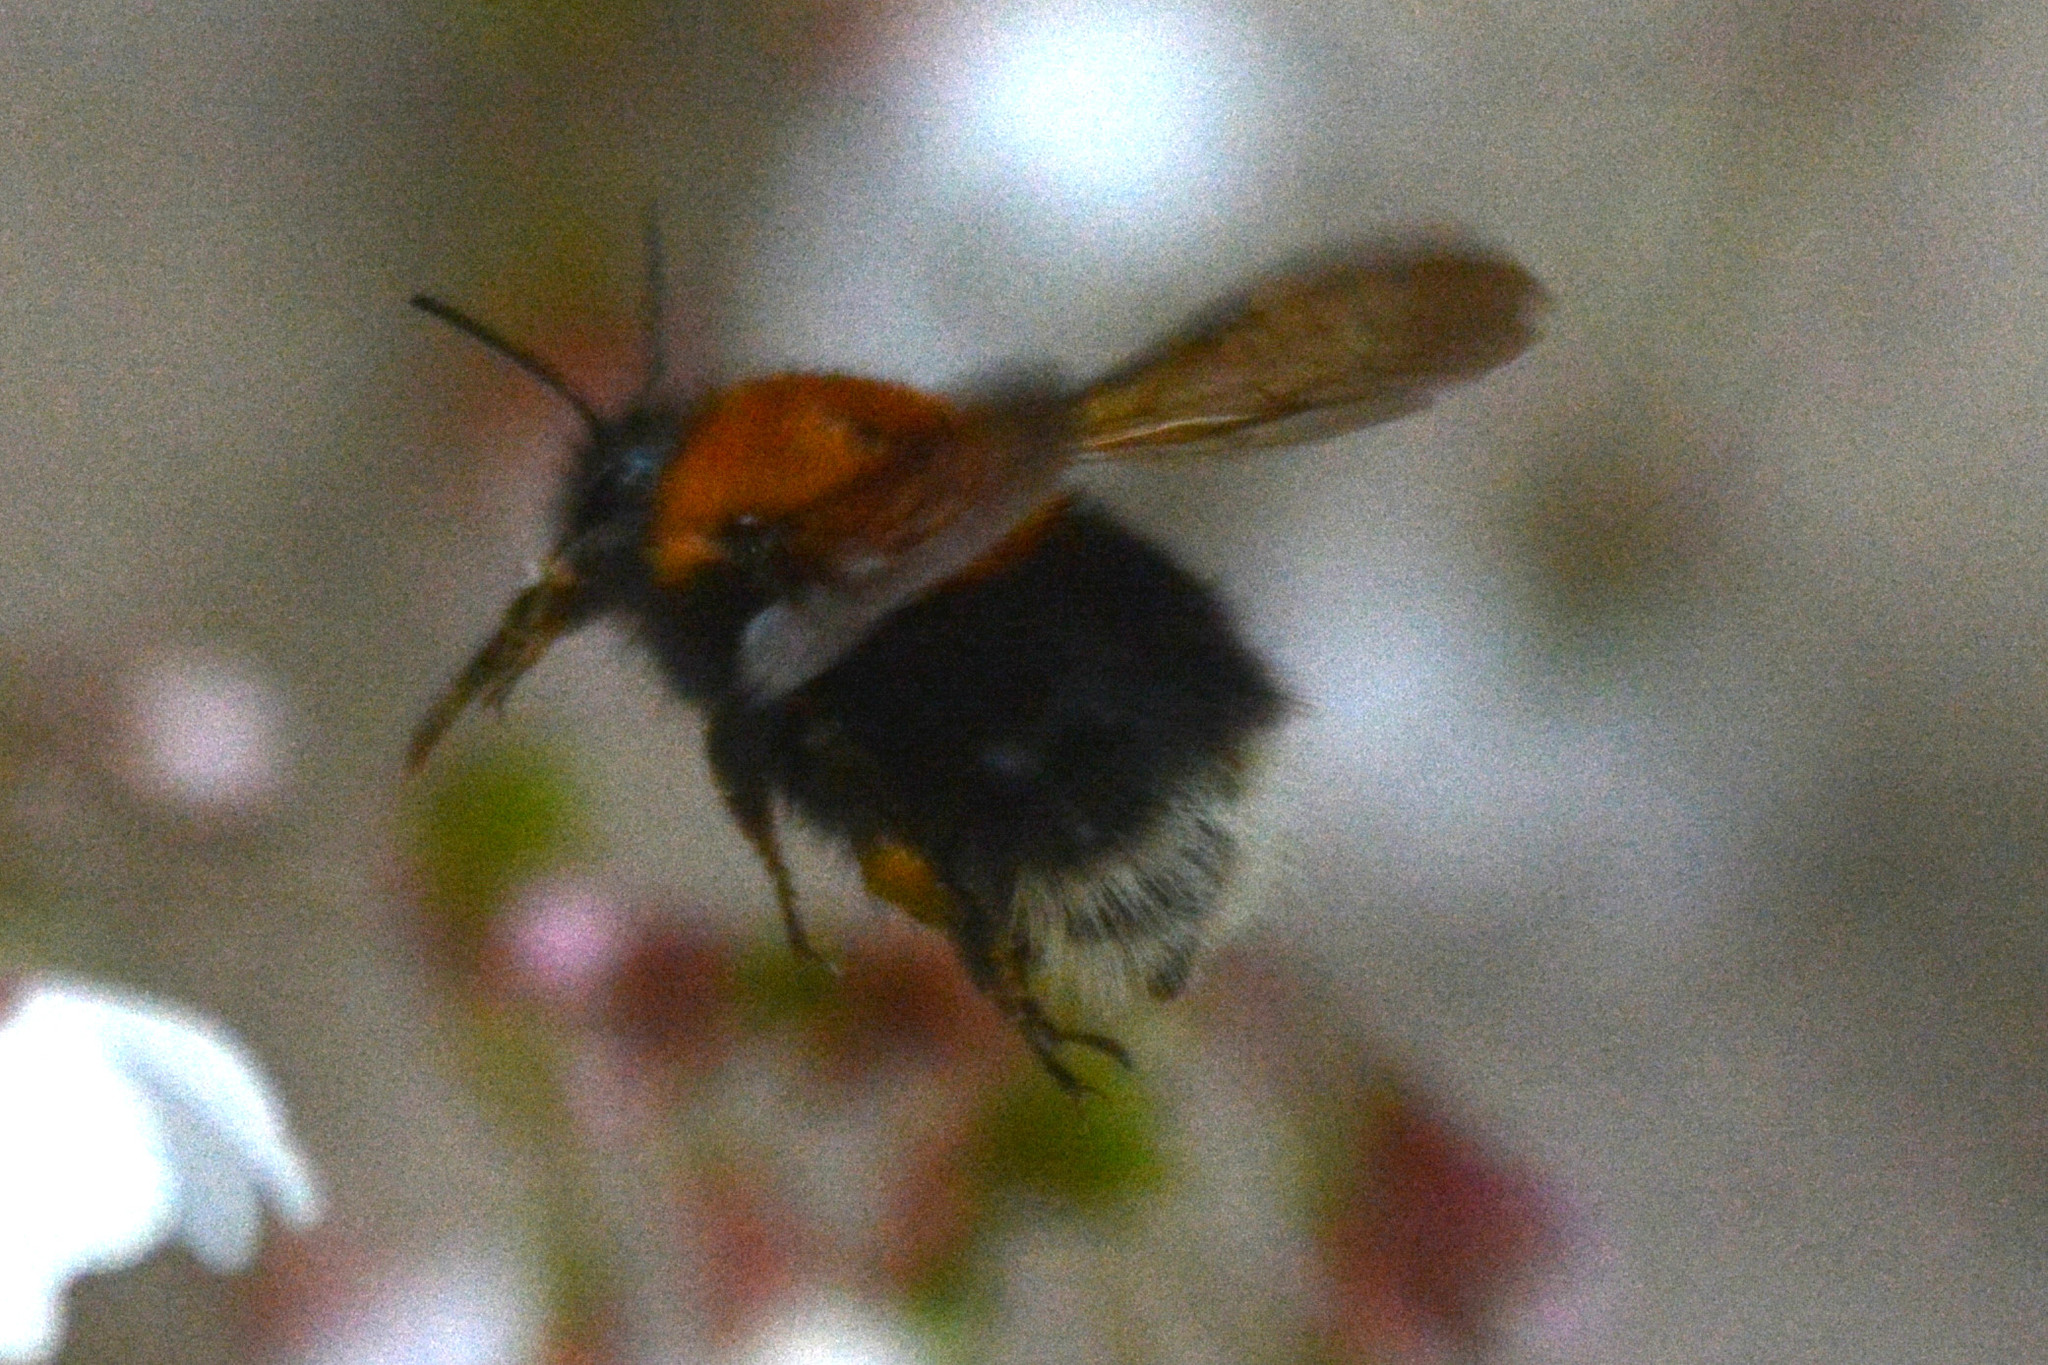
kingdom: Animalia
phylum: Arthropoda
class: Insecta
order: Hymenoptera
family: Apidae
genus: Bombus
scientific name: Bombus hypnorum
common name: New garden bumblebee
